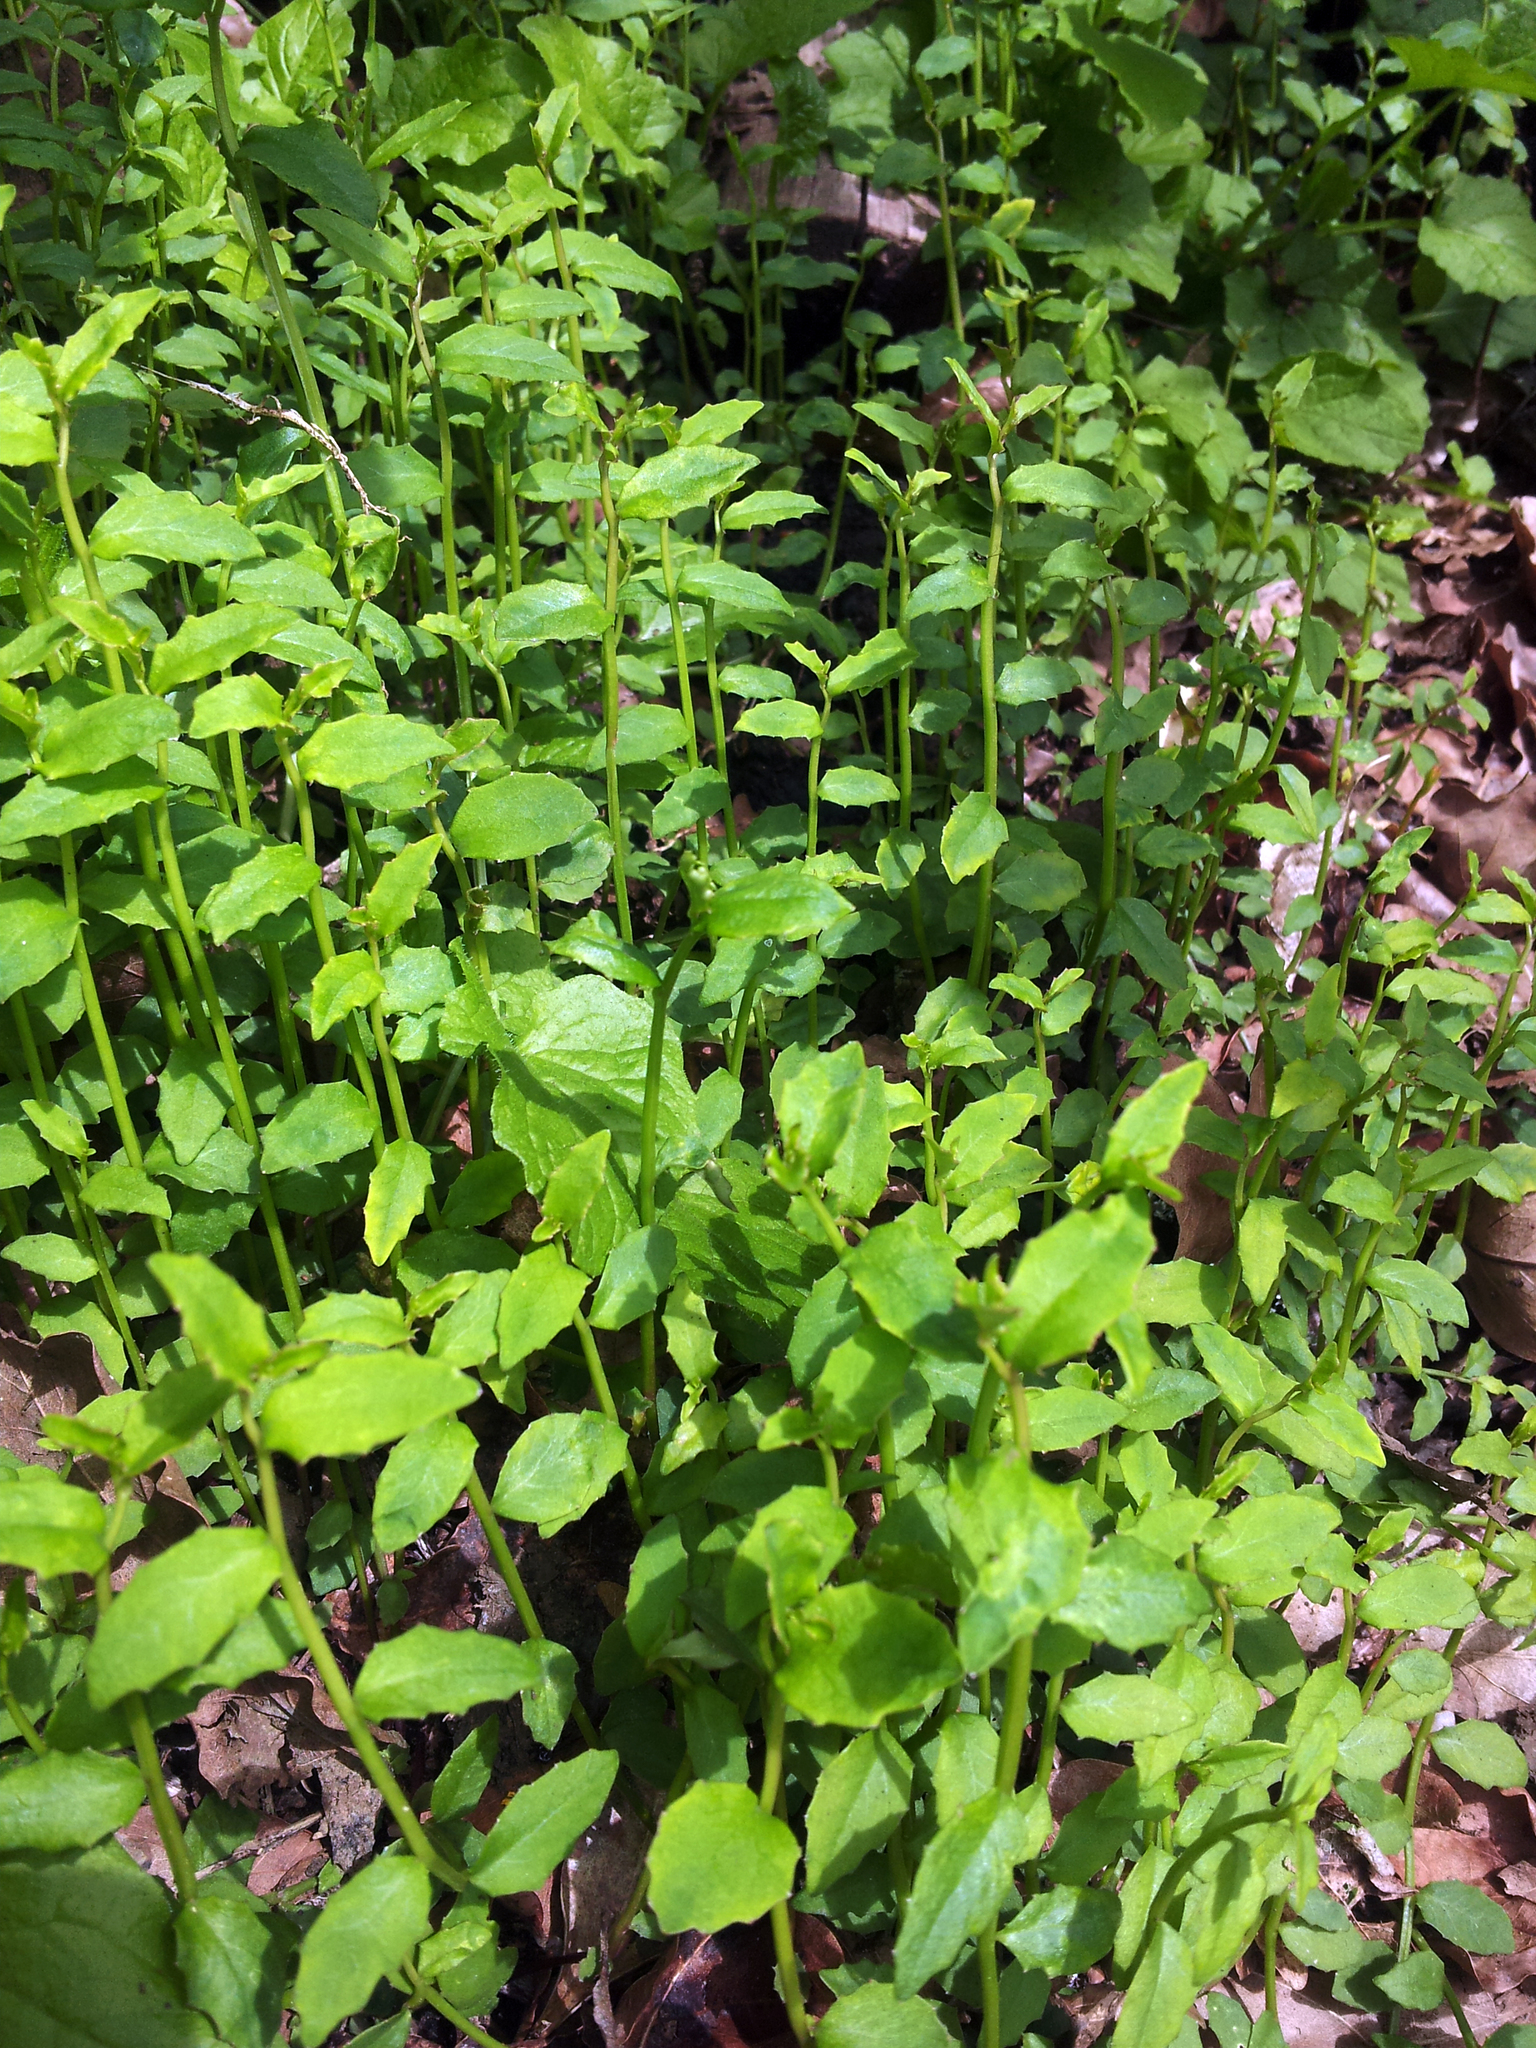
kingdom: Plantae
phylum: Tracheophyta
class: Magnoliopsida
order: Asterales
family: Campanulaceae
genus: Lobelia
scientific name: Lobelia purpurascens
